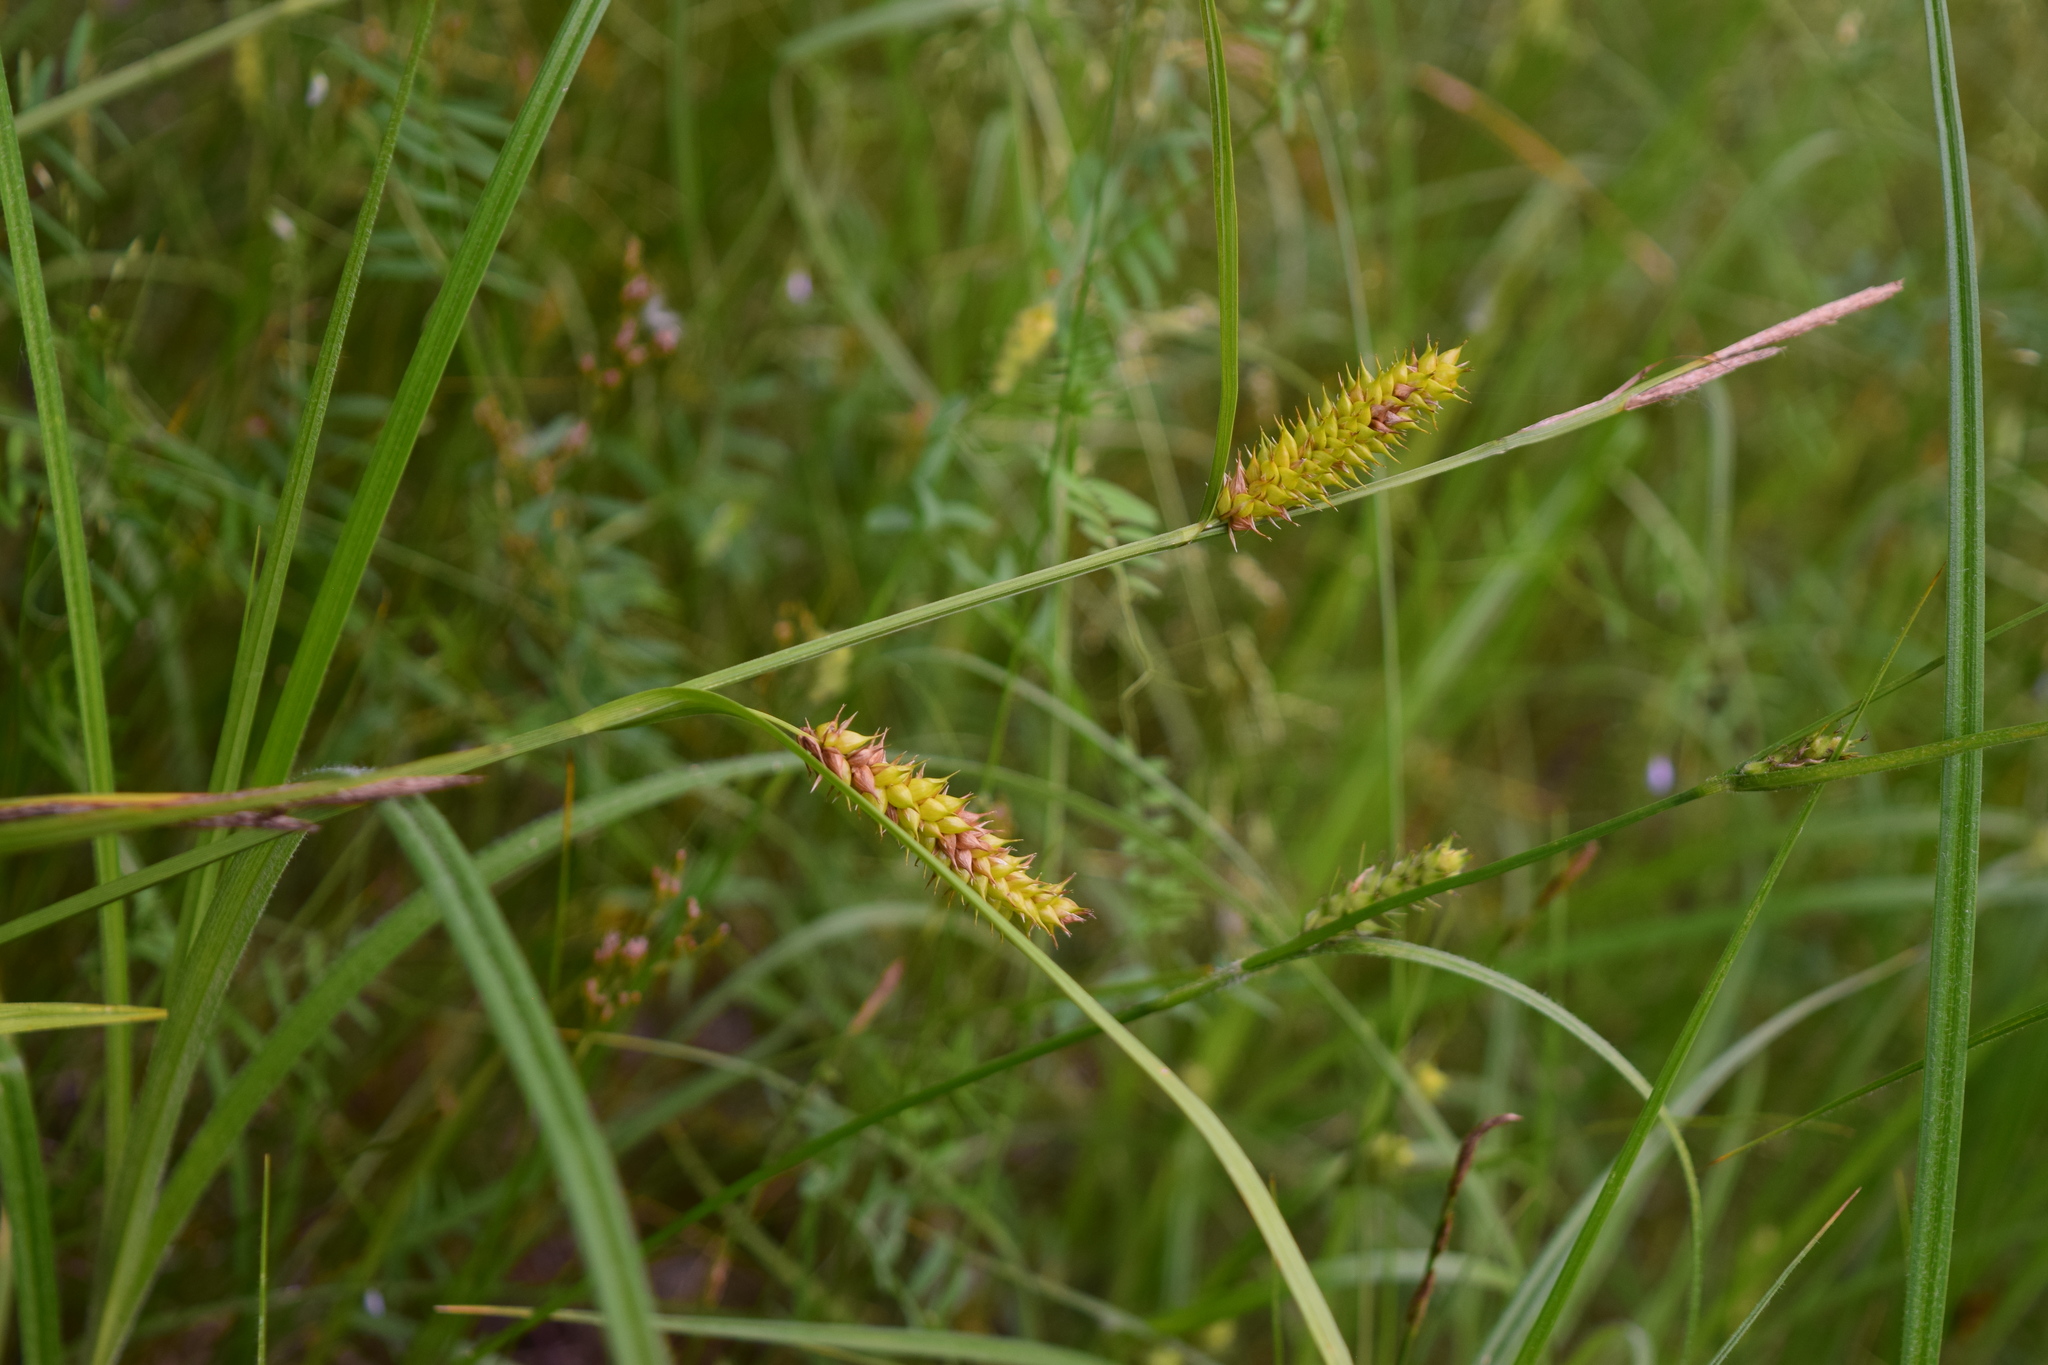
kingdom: Plantae
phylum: Tracheophyta
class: Liliopsida
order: Poales
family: Cyperaceae
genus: Carex
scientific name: Carex vesicaria
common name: Bladder-sedge
